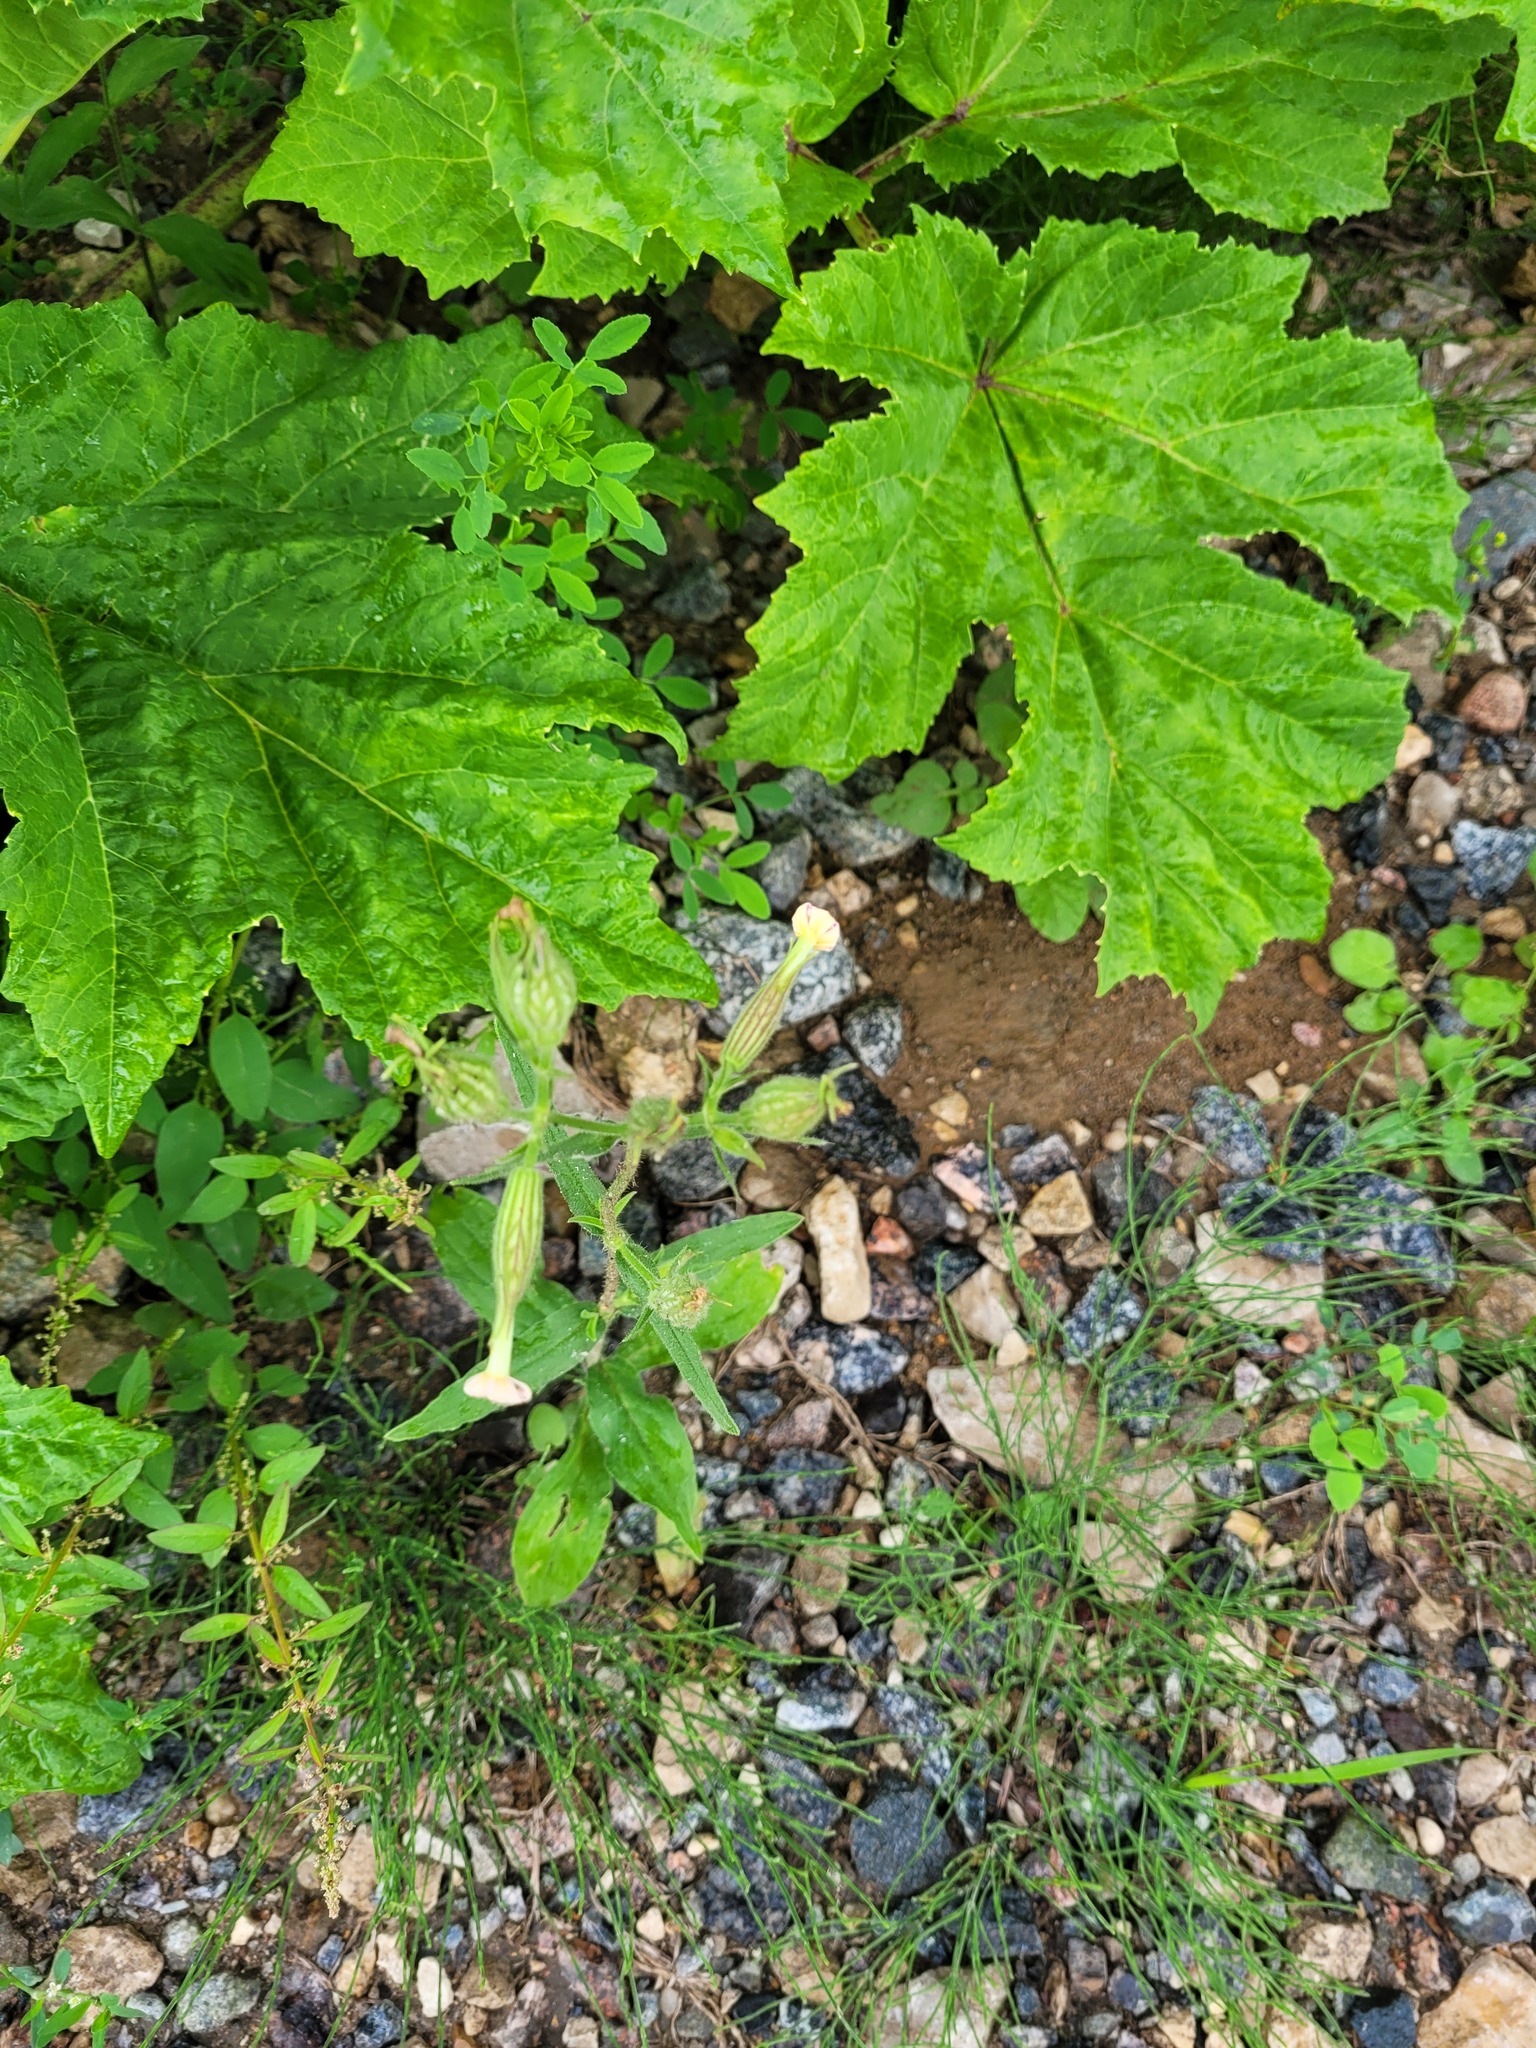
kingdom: Plantae
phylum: Tracheophyta
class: Magnoliopsida
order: Caryophyllales
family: Caryophyllaceae
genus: Silene
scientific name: Silene noctiflora
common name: Night-flowering catchfly
